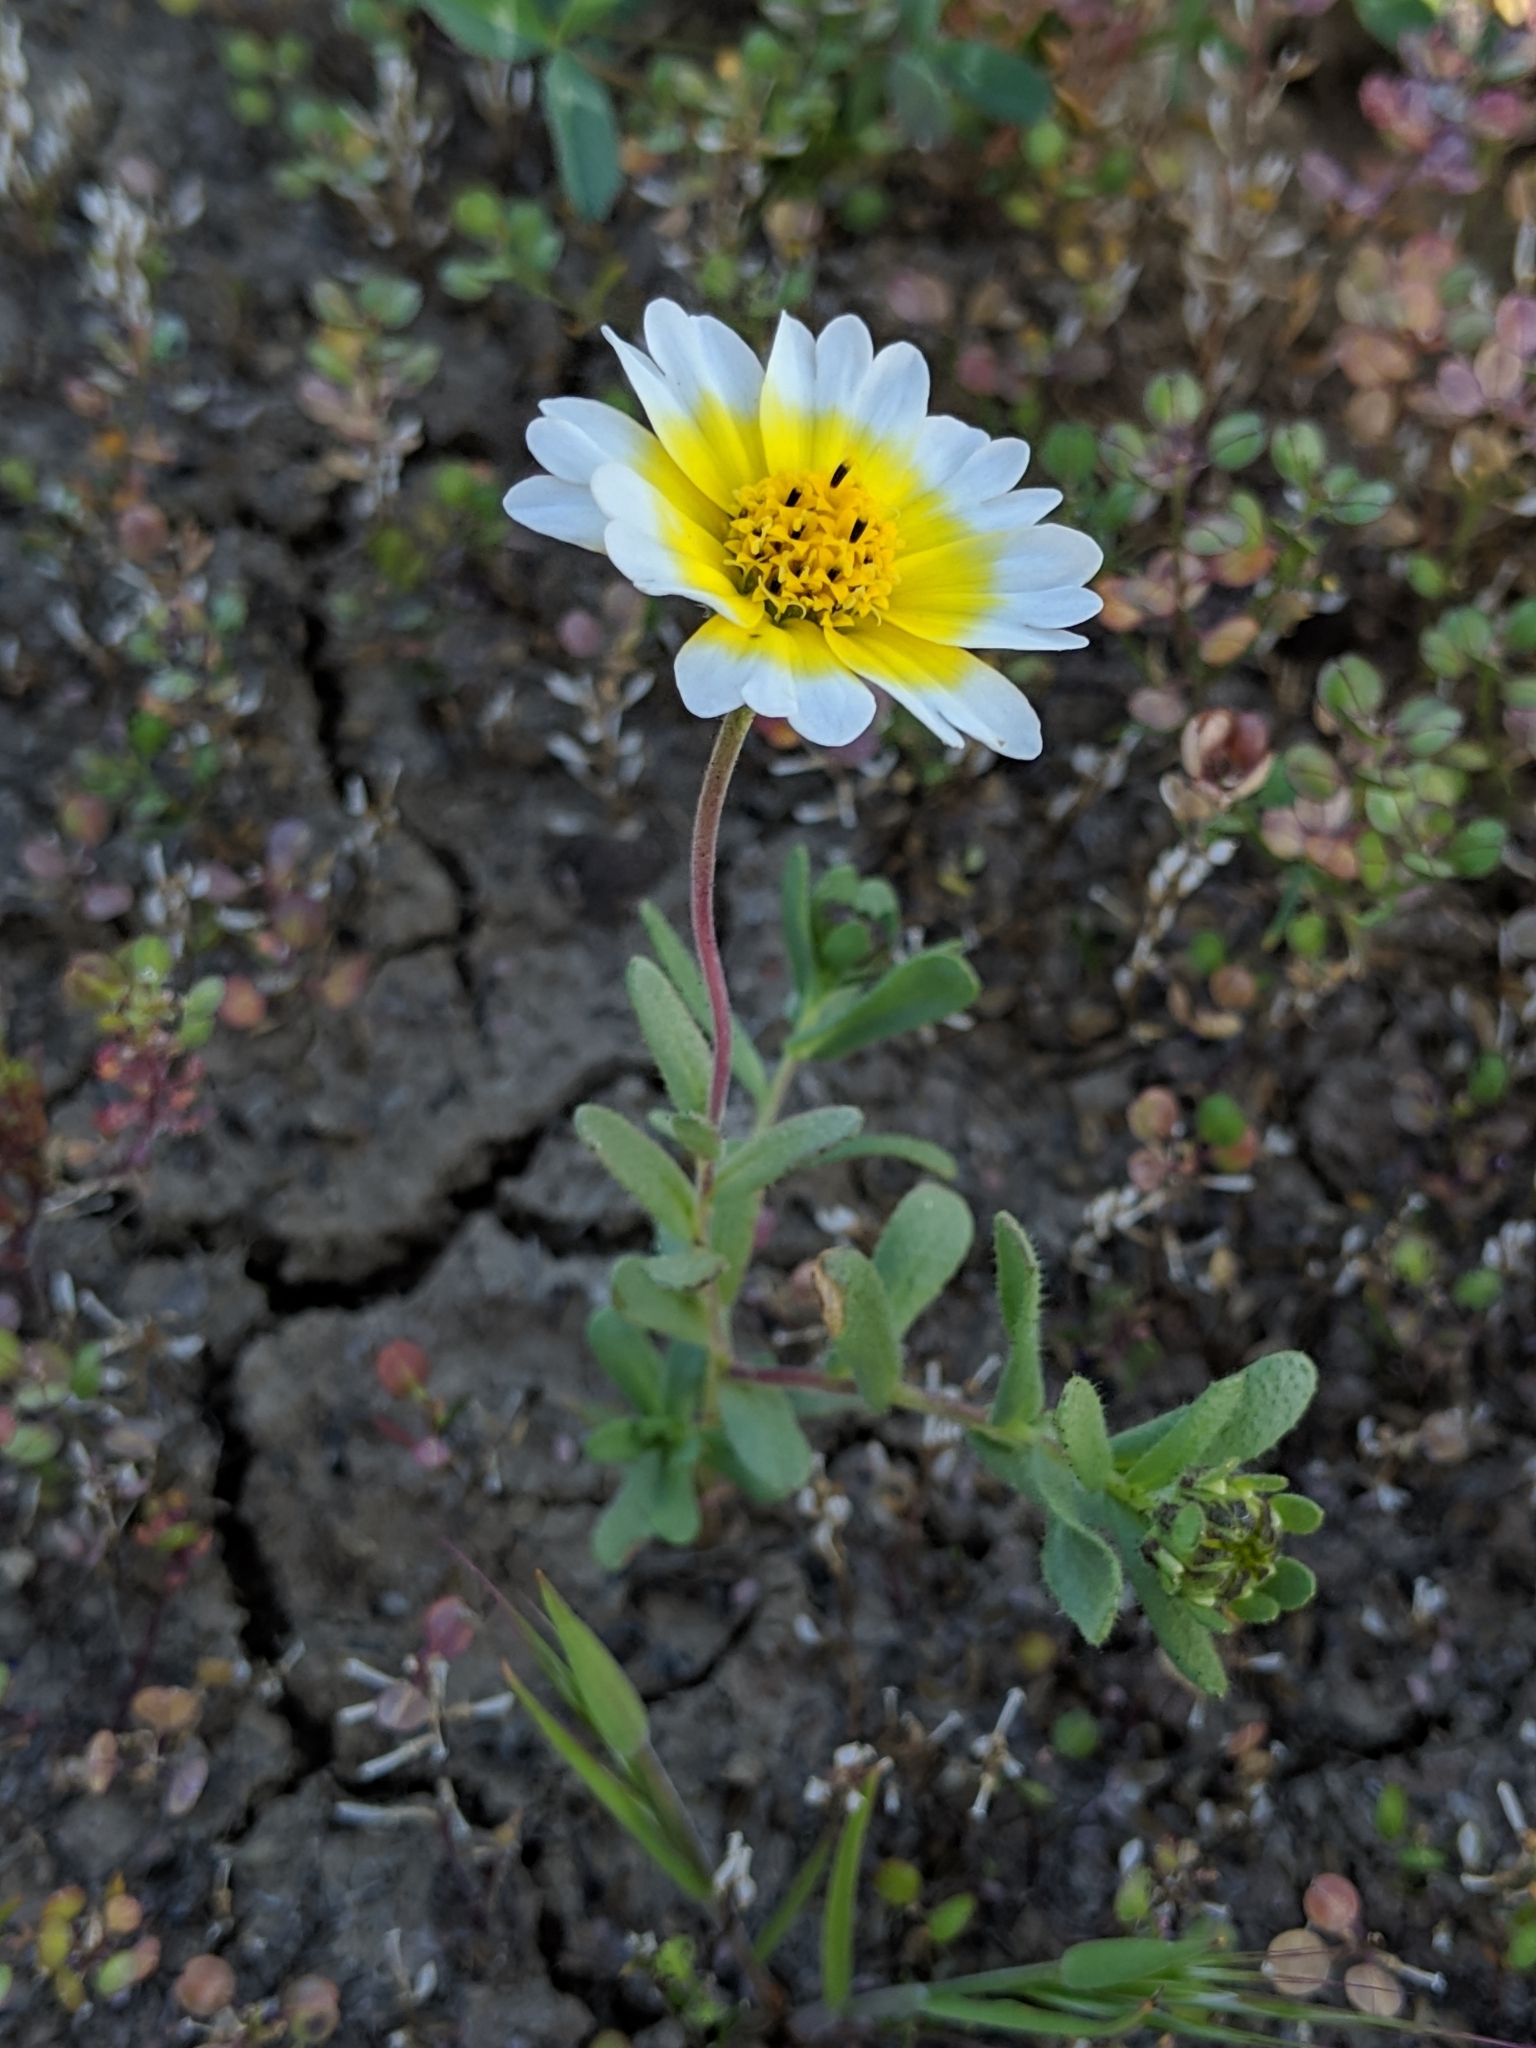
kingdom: Plantae
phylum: Tracheophyta
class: Magnoliopsida
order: Asterales
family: Asteraceae
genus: Layia
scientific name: Layia munzii
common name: Munz's tidy-tips
